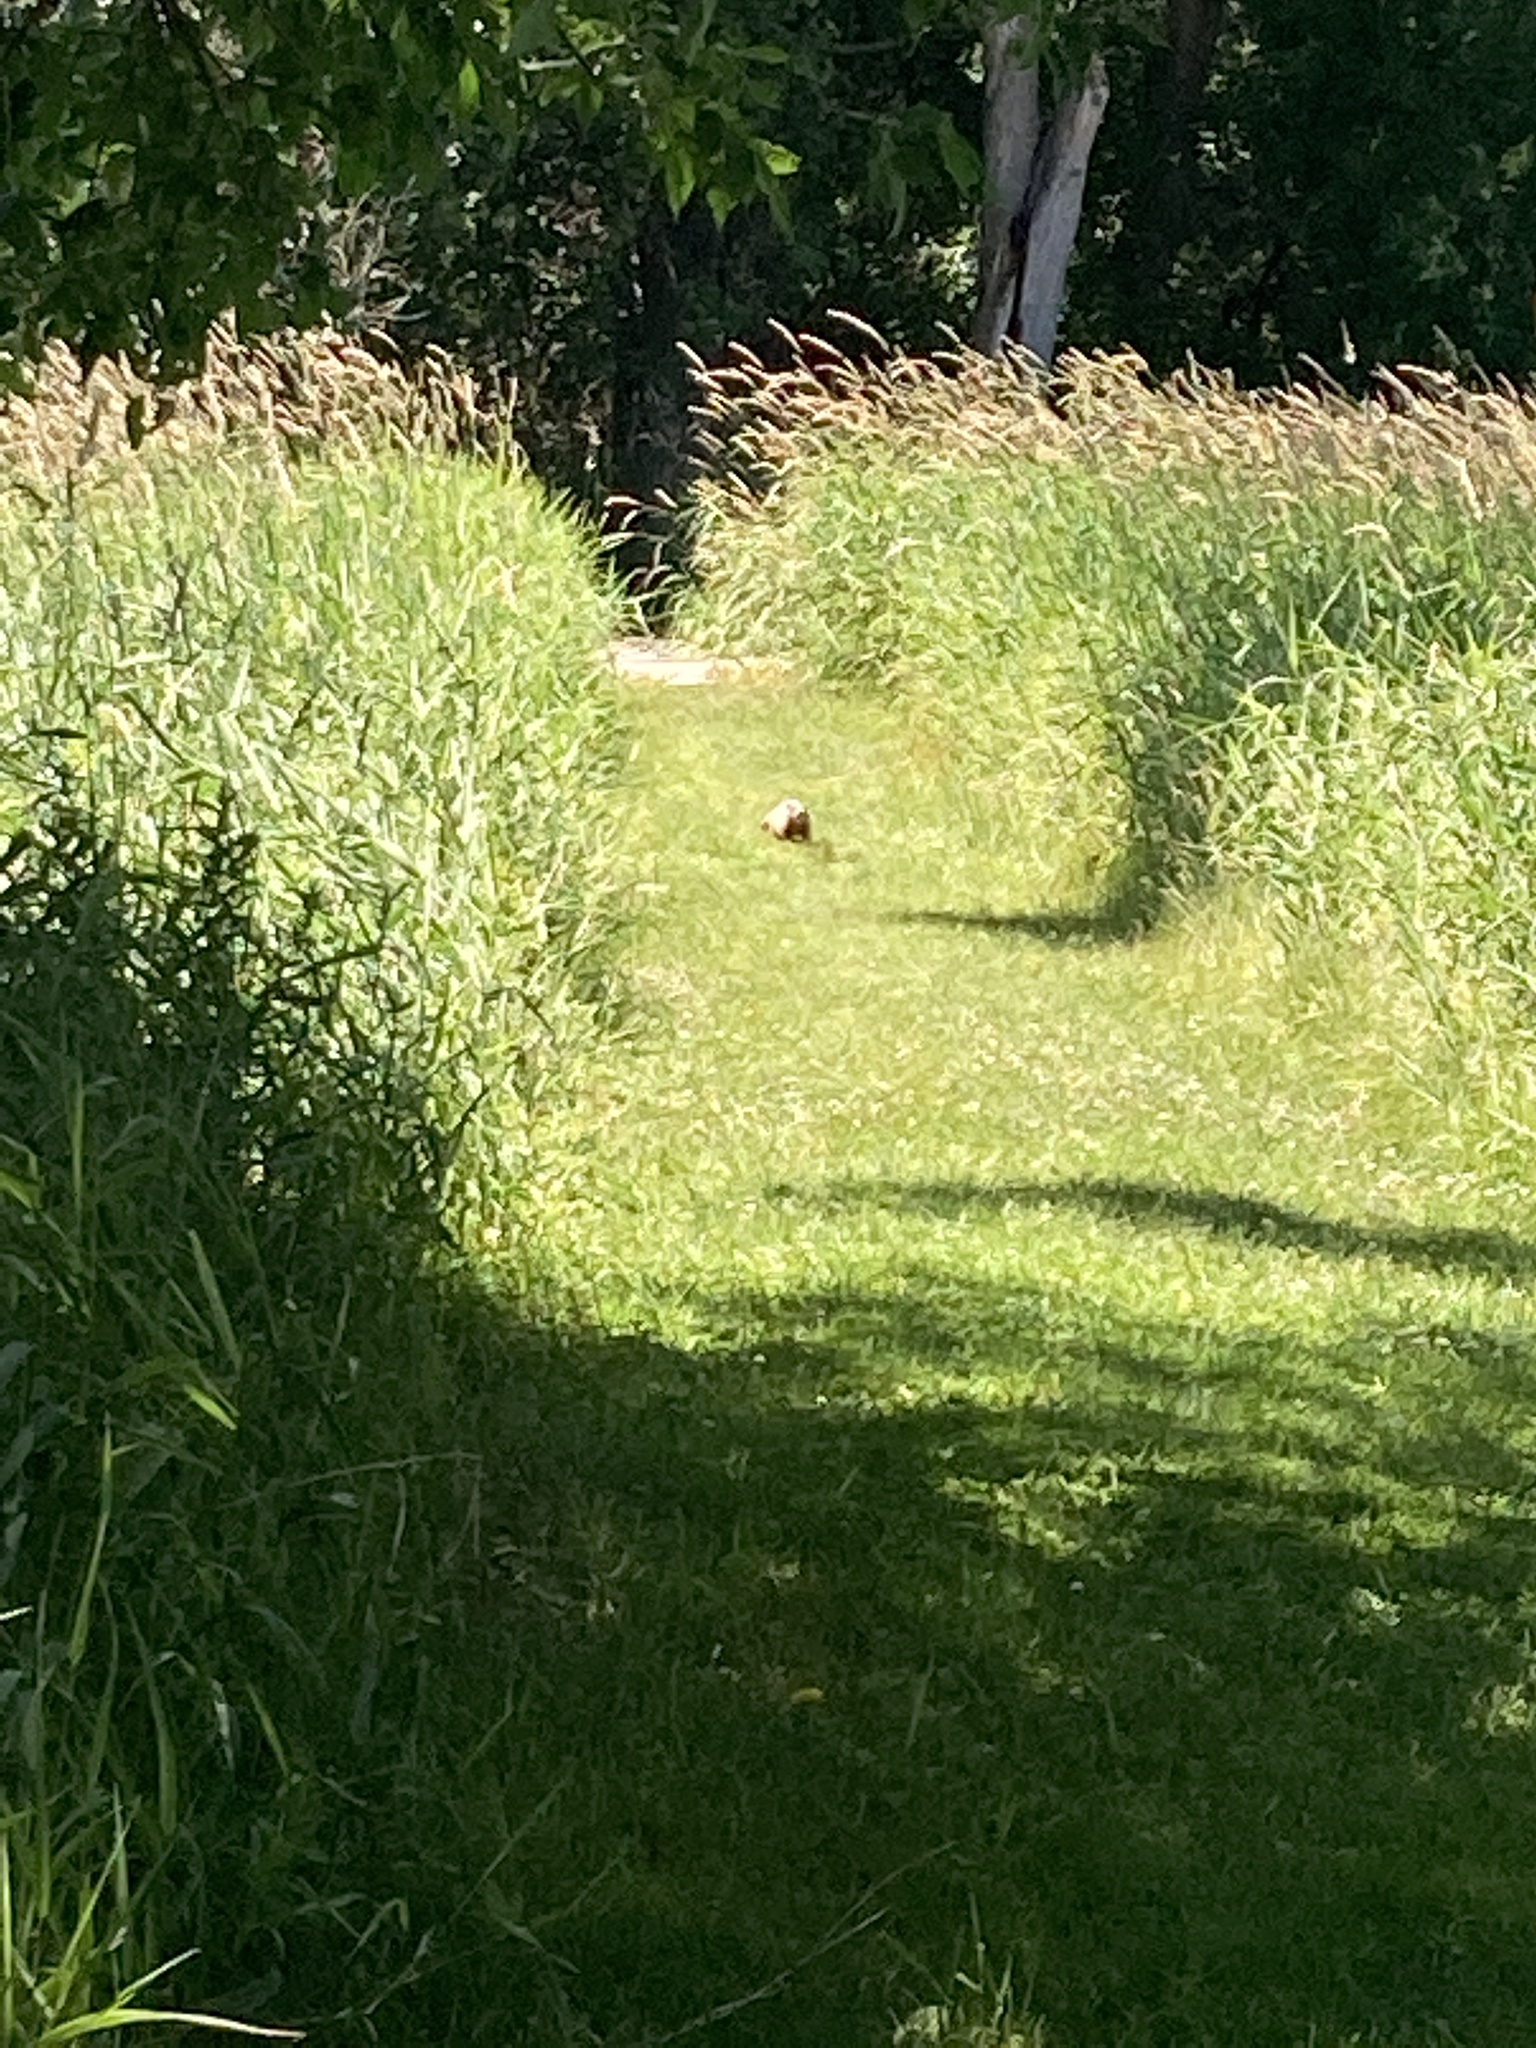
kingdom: Animalia
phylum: Chordata
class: Mammalia
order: Rodentia
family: Sciuridae
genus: Marmota
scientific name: Marmota monax
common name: Groundhog
